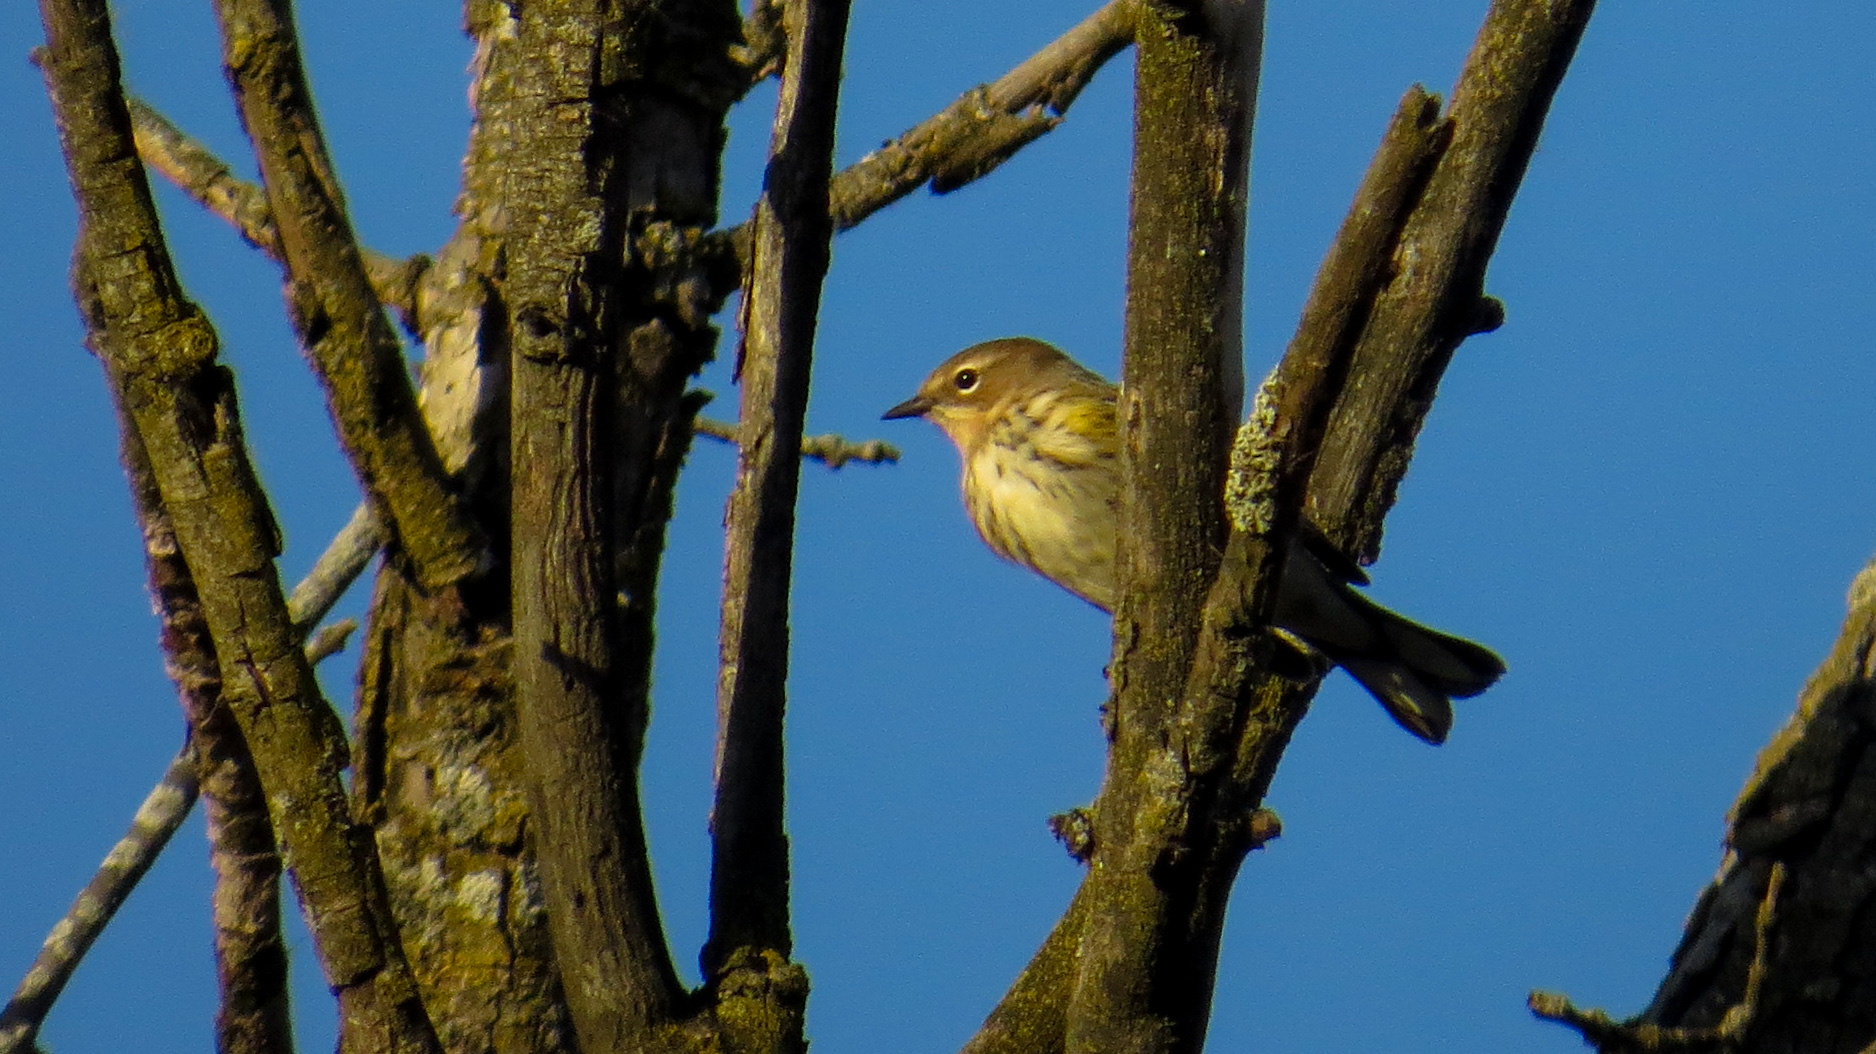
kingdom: Animalia
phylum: Chordata
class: Aves
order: Passeriformes
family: Parulidae
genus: Setophaga
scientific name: Setophaga coronata
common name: Myrtle warbler
